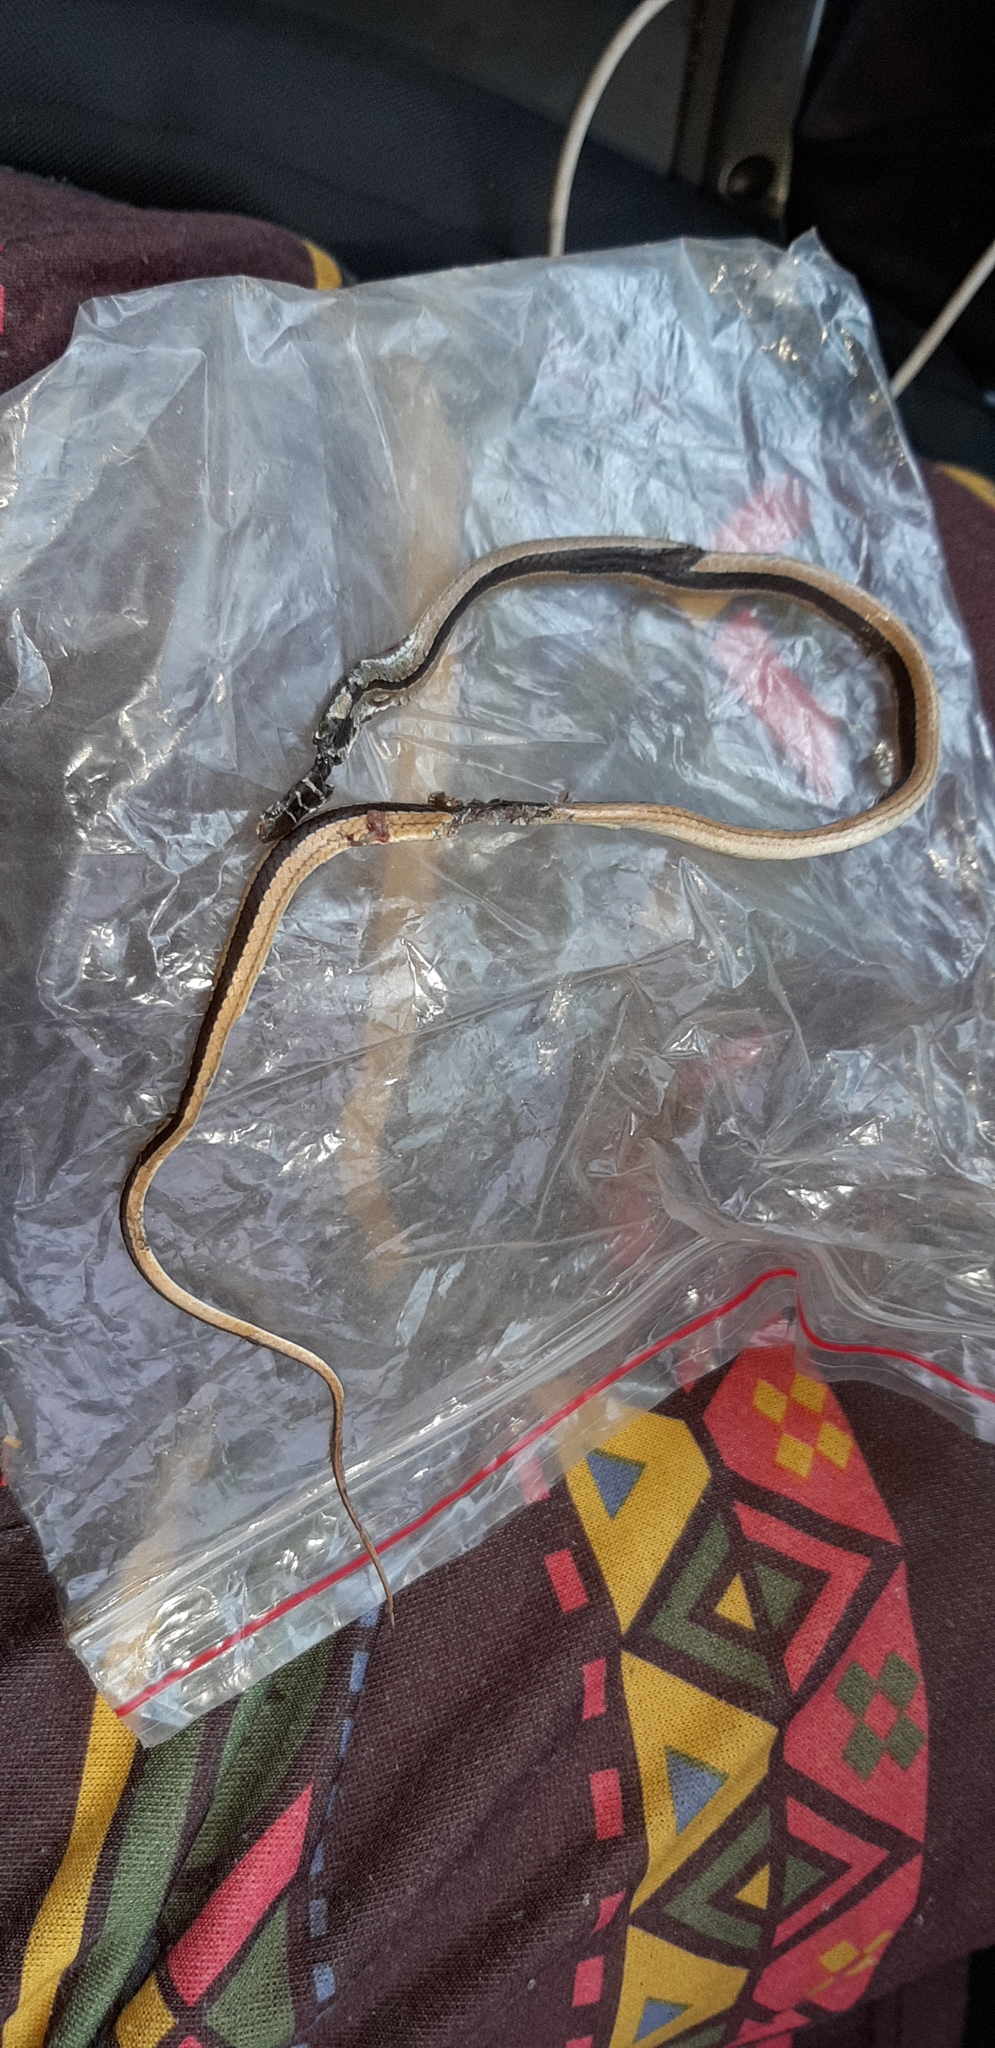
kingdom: Animalia
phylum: Chordata
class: Squamata
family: Psammophiidae
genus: Psammophis
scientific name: Psammophis angolensis
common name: Dwarf sand snake
